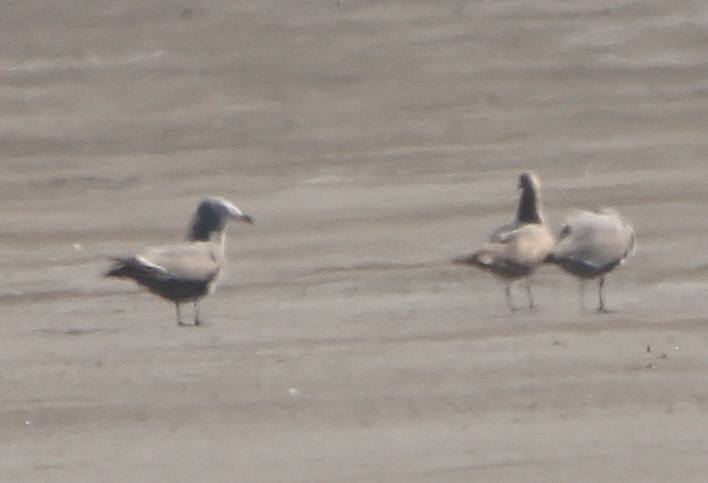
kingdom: Animalia
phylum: Chordata
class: Aves
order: Charadriiformes
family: Laridae
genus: Leucophaeus
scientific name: Leucophaeus modestus
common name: Gray gull
